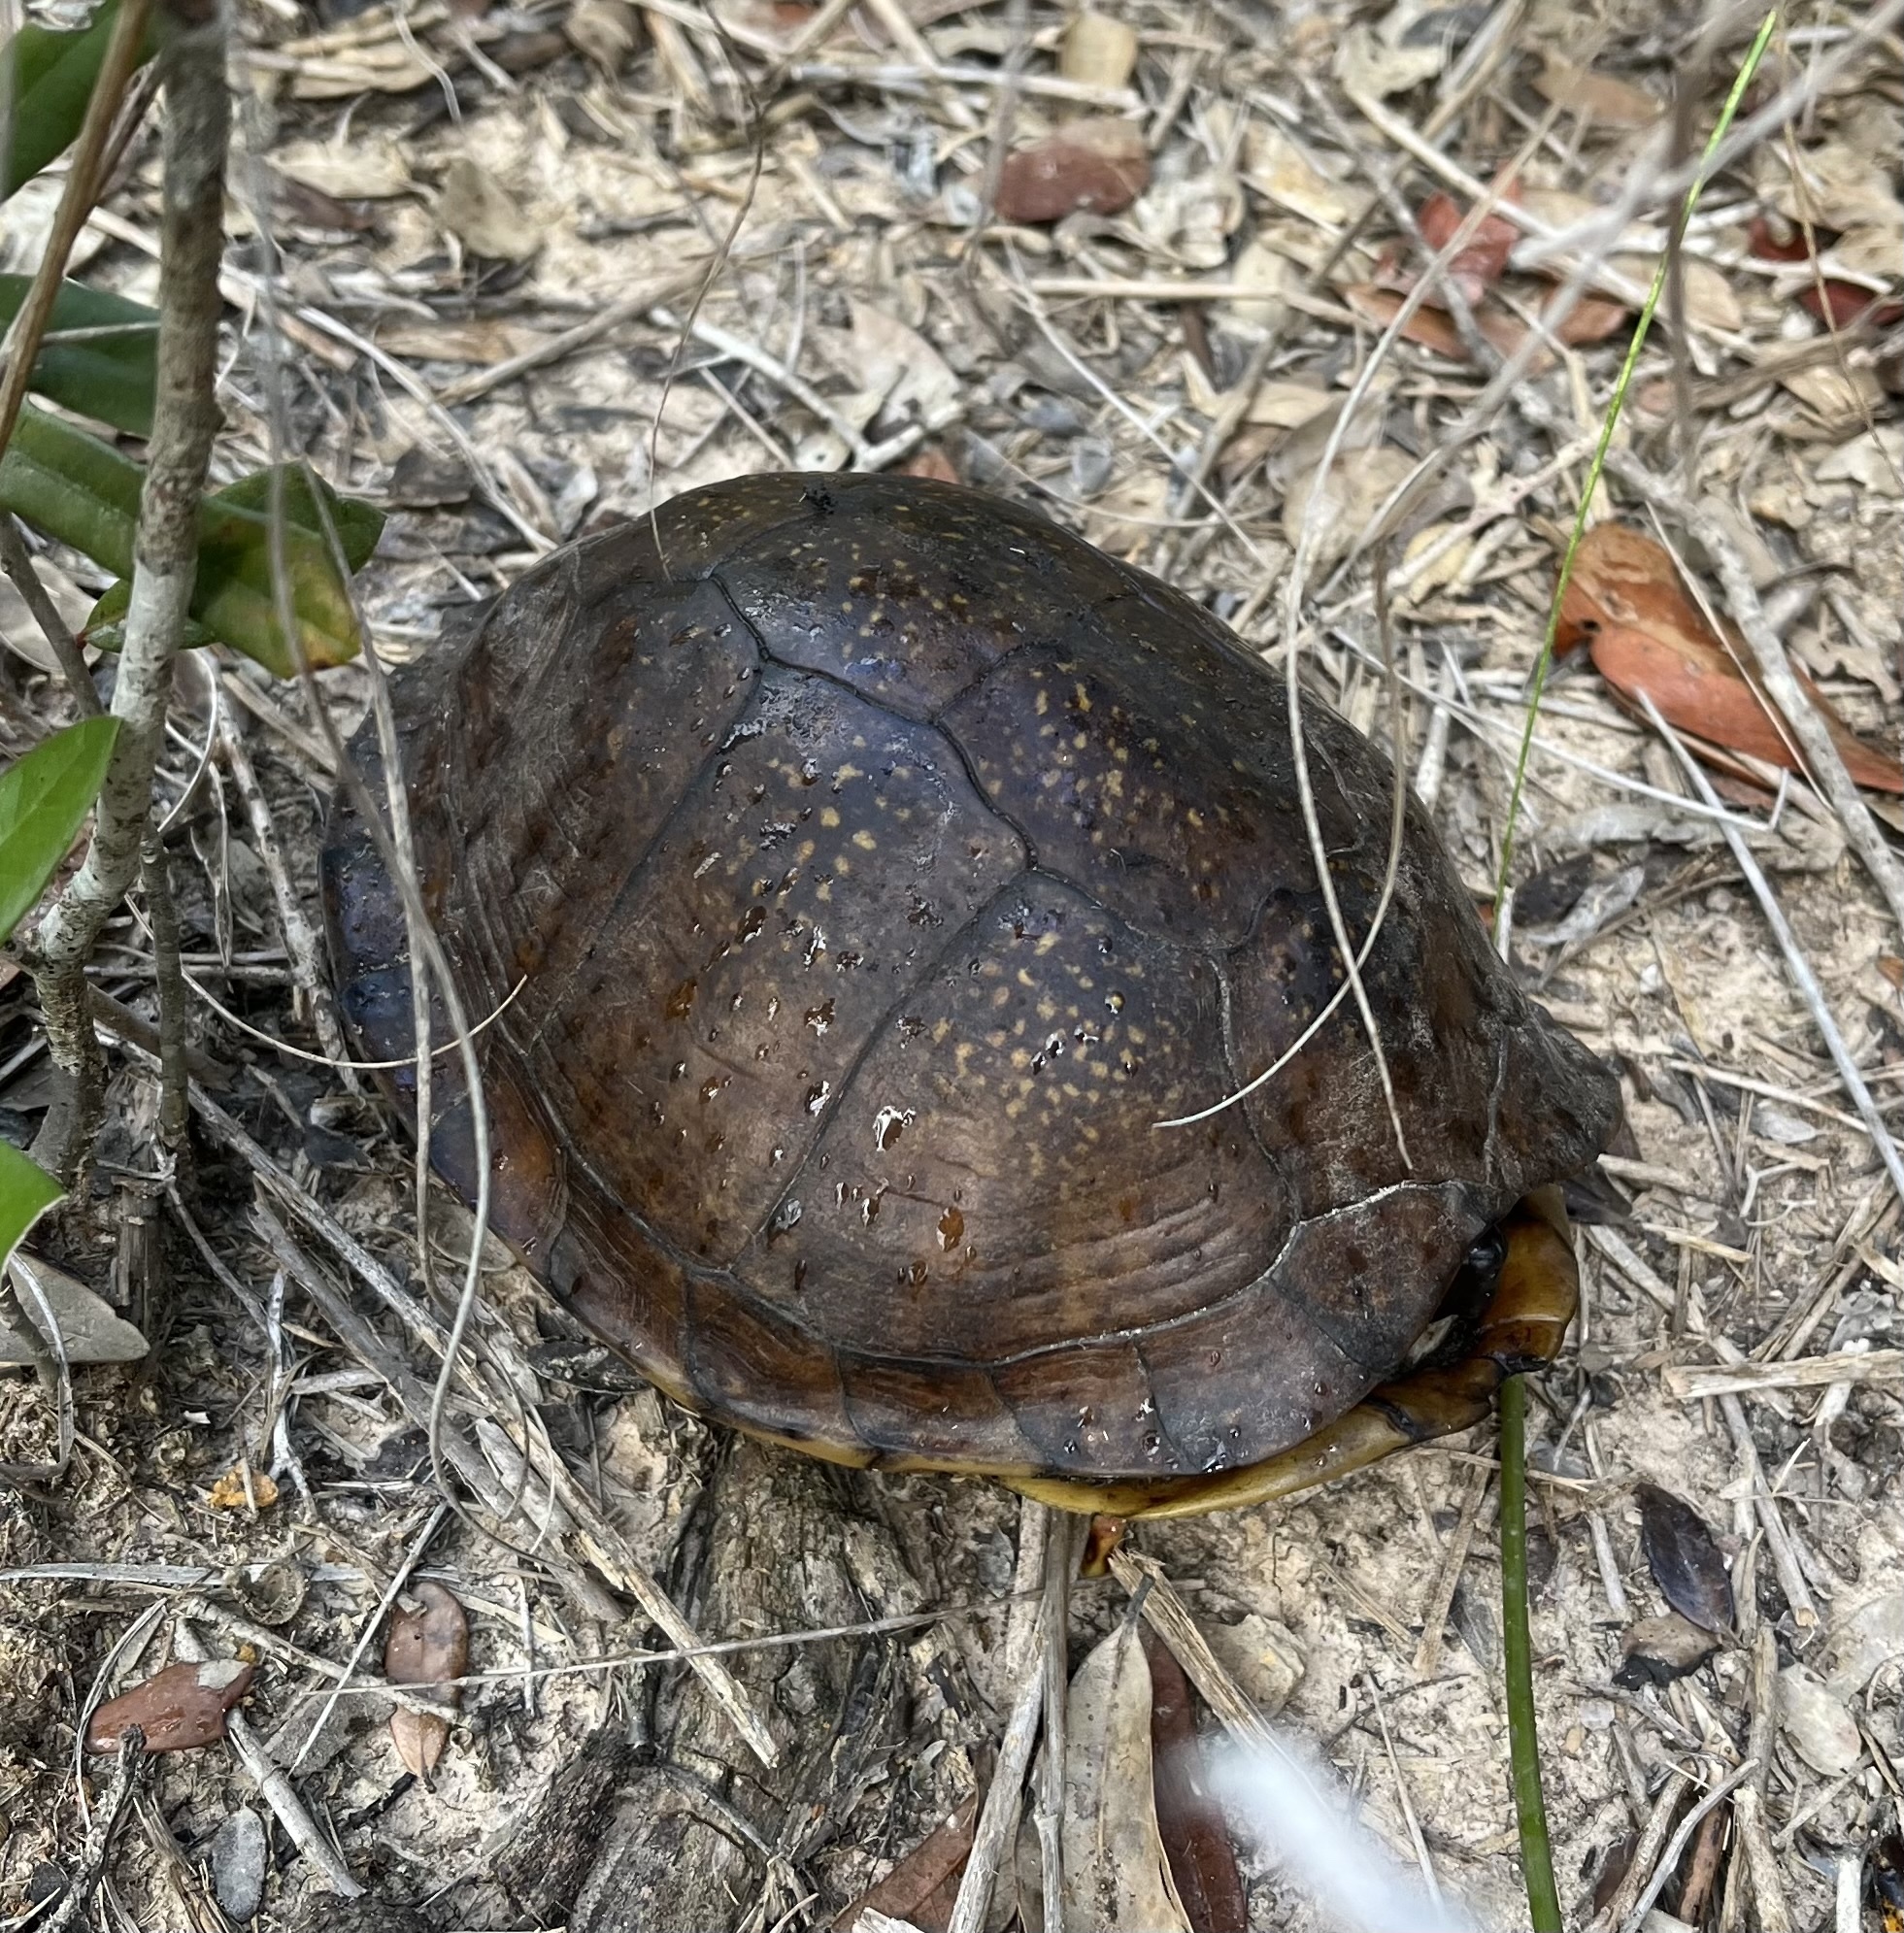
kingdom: Animalia
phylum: Chordata
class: Testudines
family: Emydidae
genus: Terrapene
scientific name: Terrapene carolina
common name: Common box turtle
